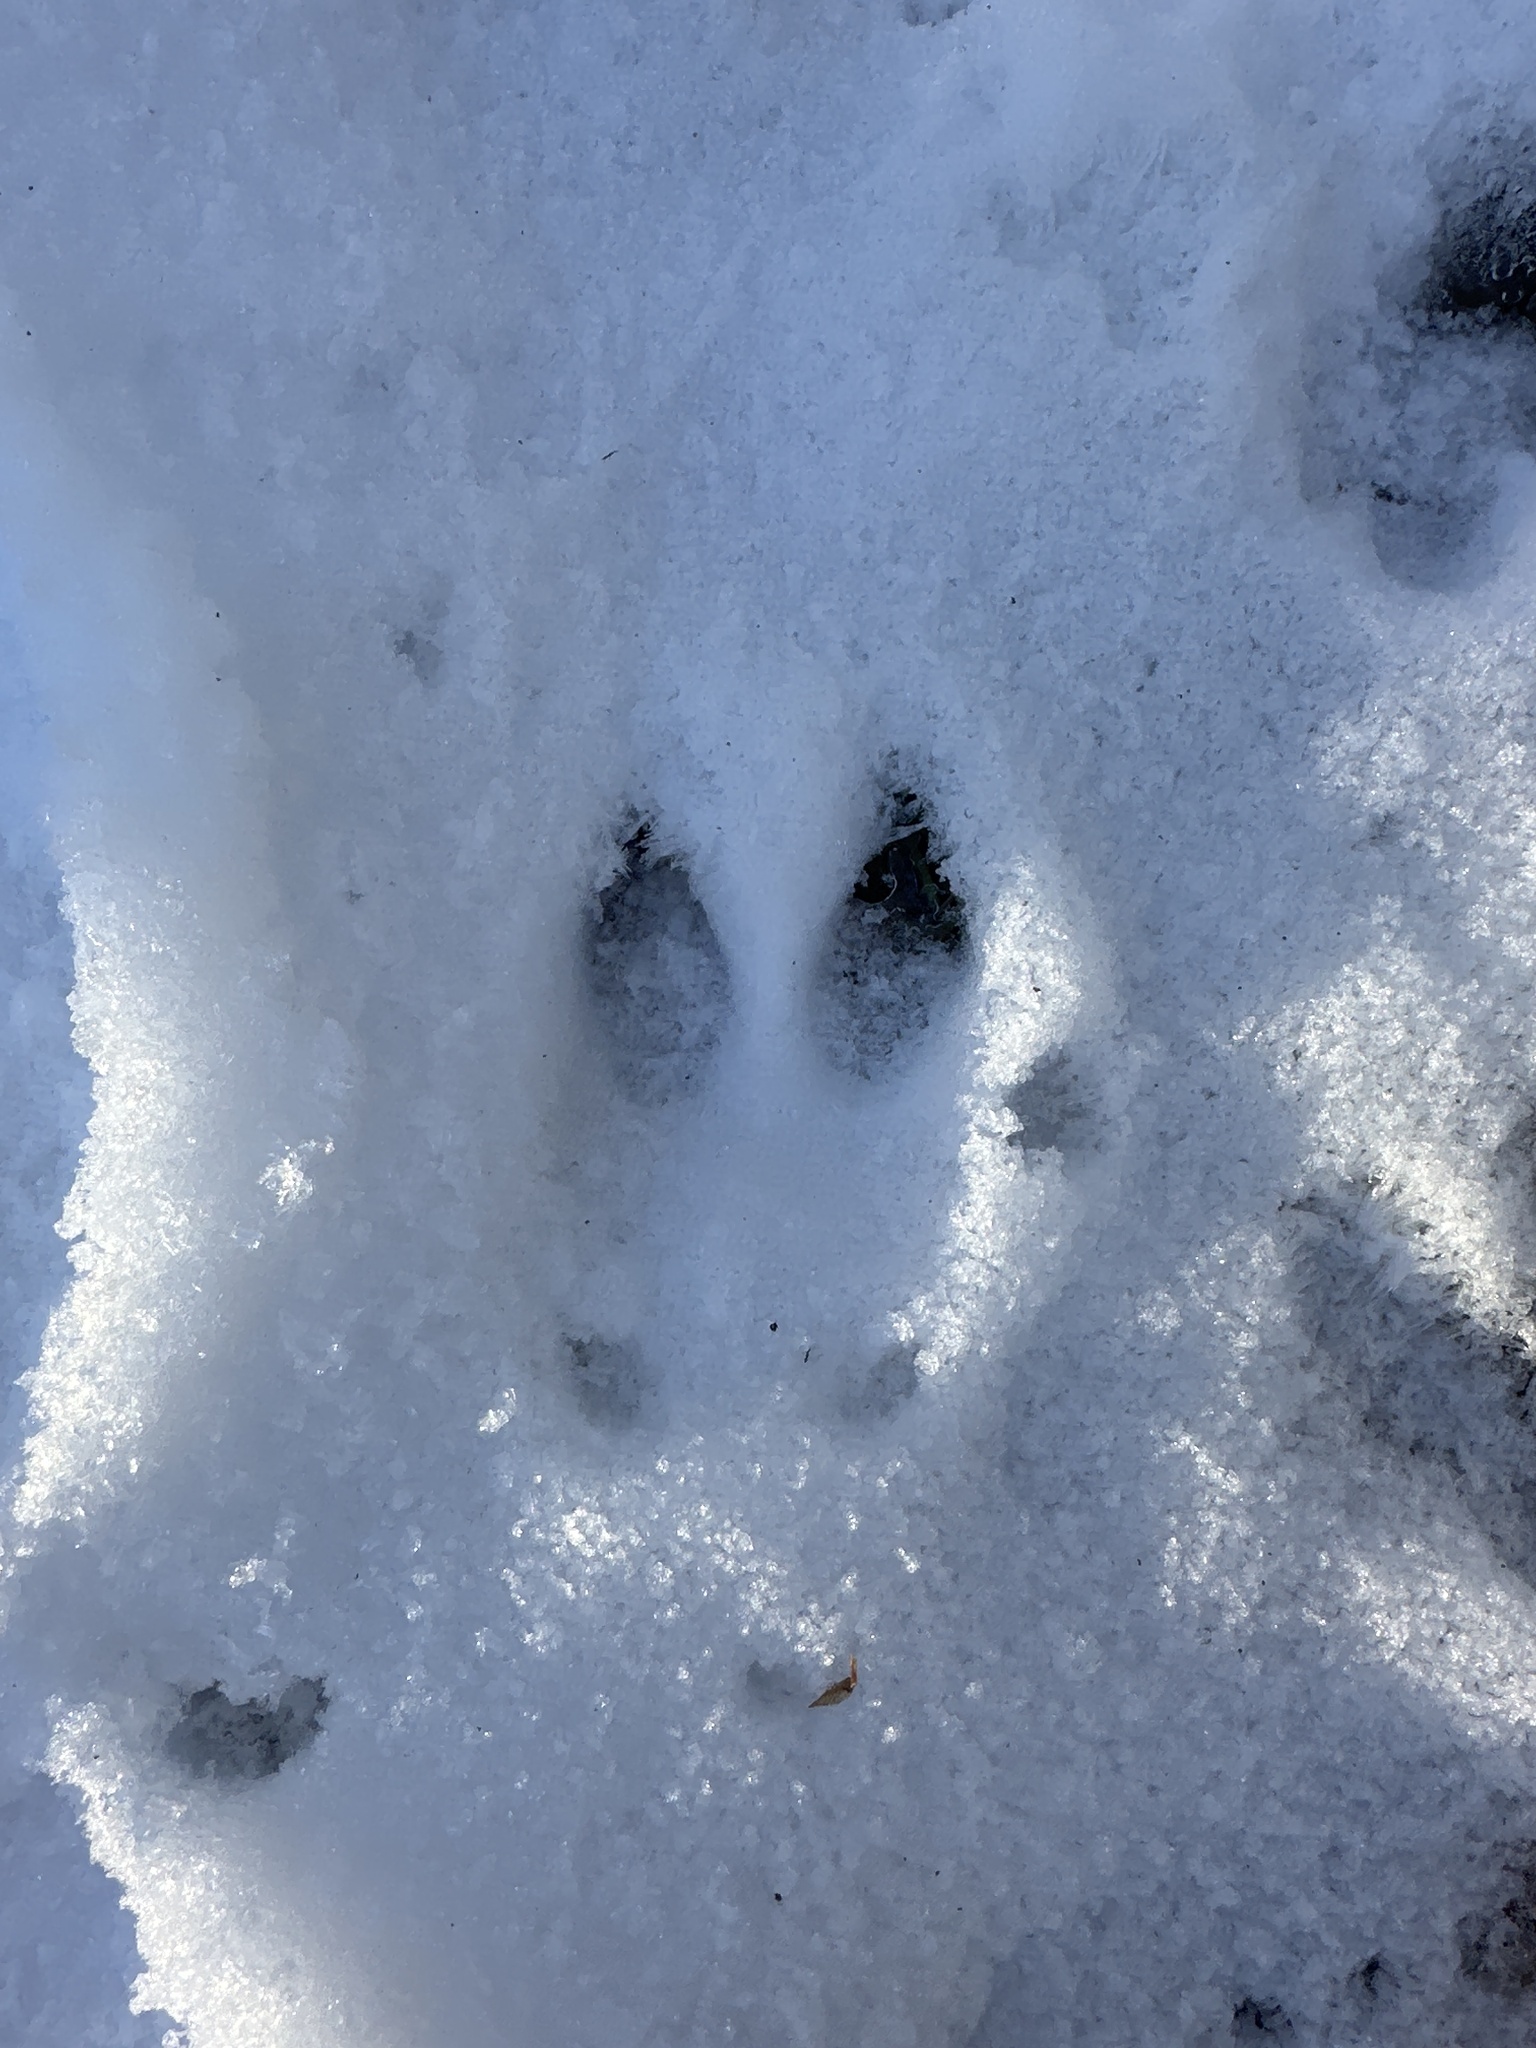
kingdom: Animalia
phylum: Chordata
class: Mammalia
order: Artiodactyla
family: Cervidae
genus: Capreolus
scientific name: Capreolus capreolus
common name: Western roe deer
